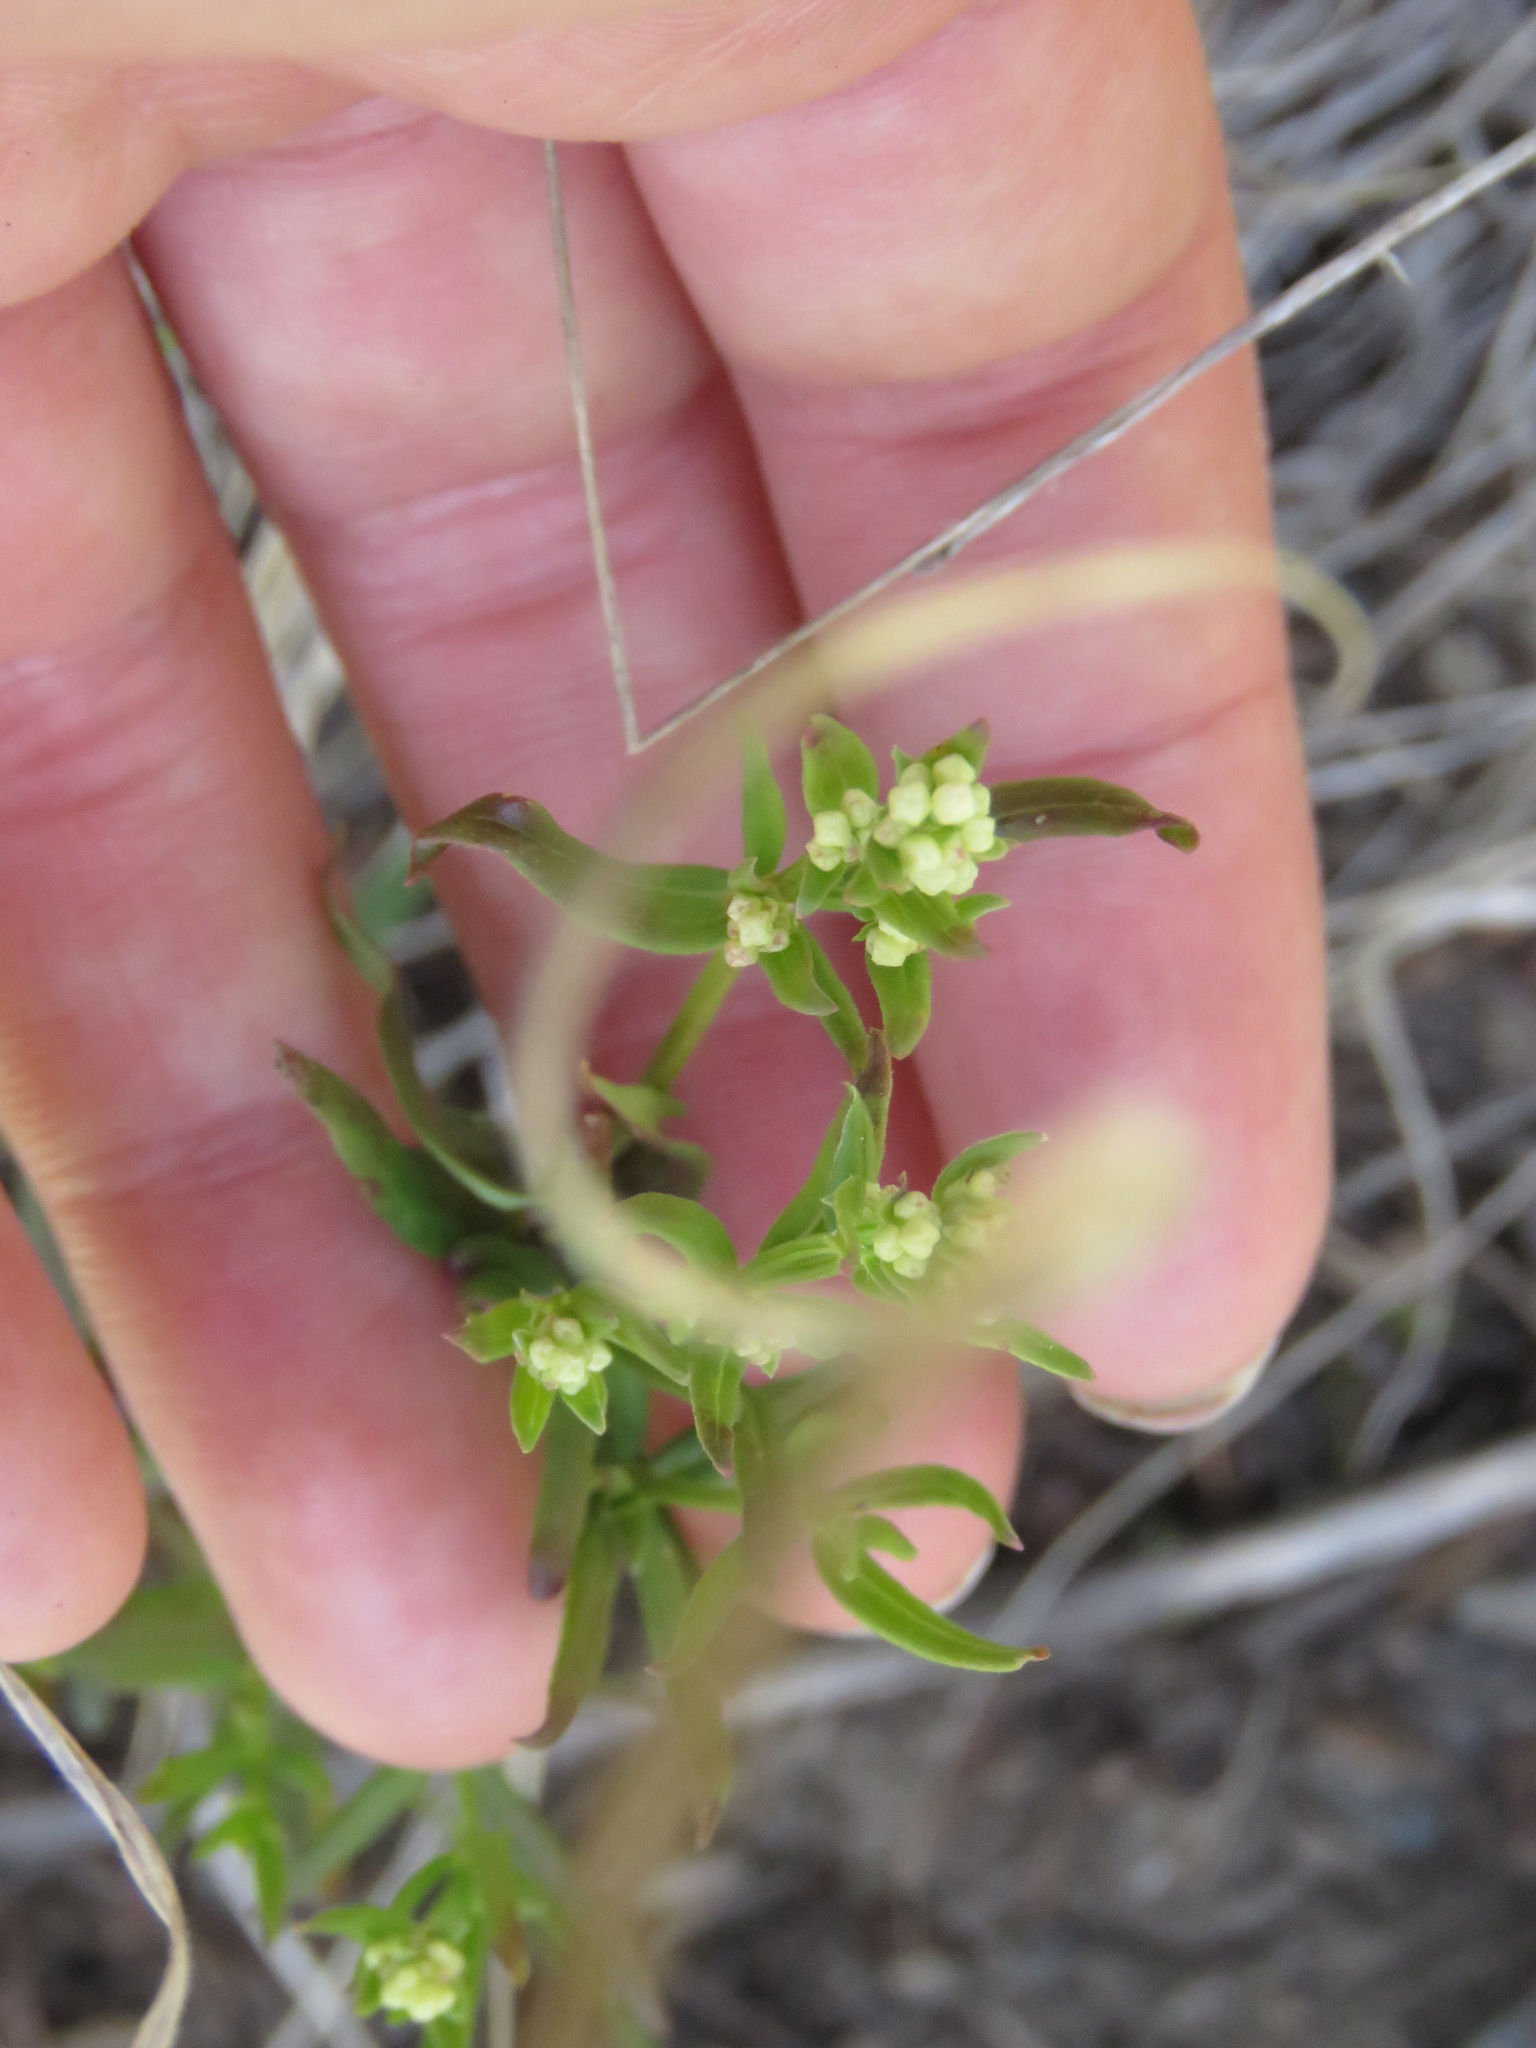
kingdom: Plantae
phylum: Tracheophyta
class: Magnoliopsida
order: Gentianales
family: Rubiaceae
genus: Galium
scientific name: Galium boreale
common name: Northern bedstraw
